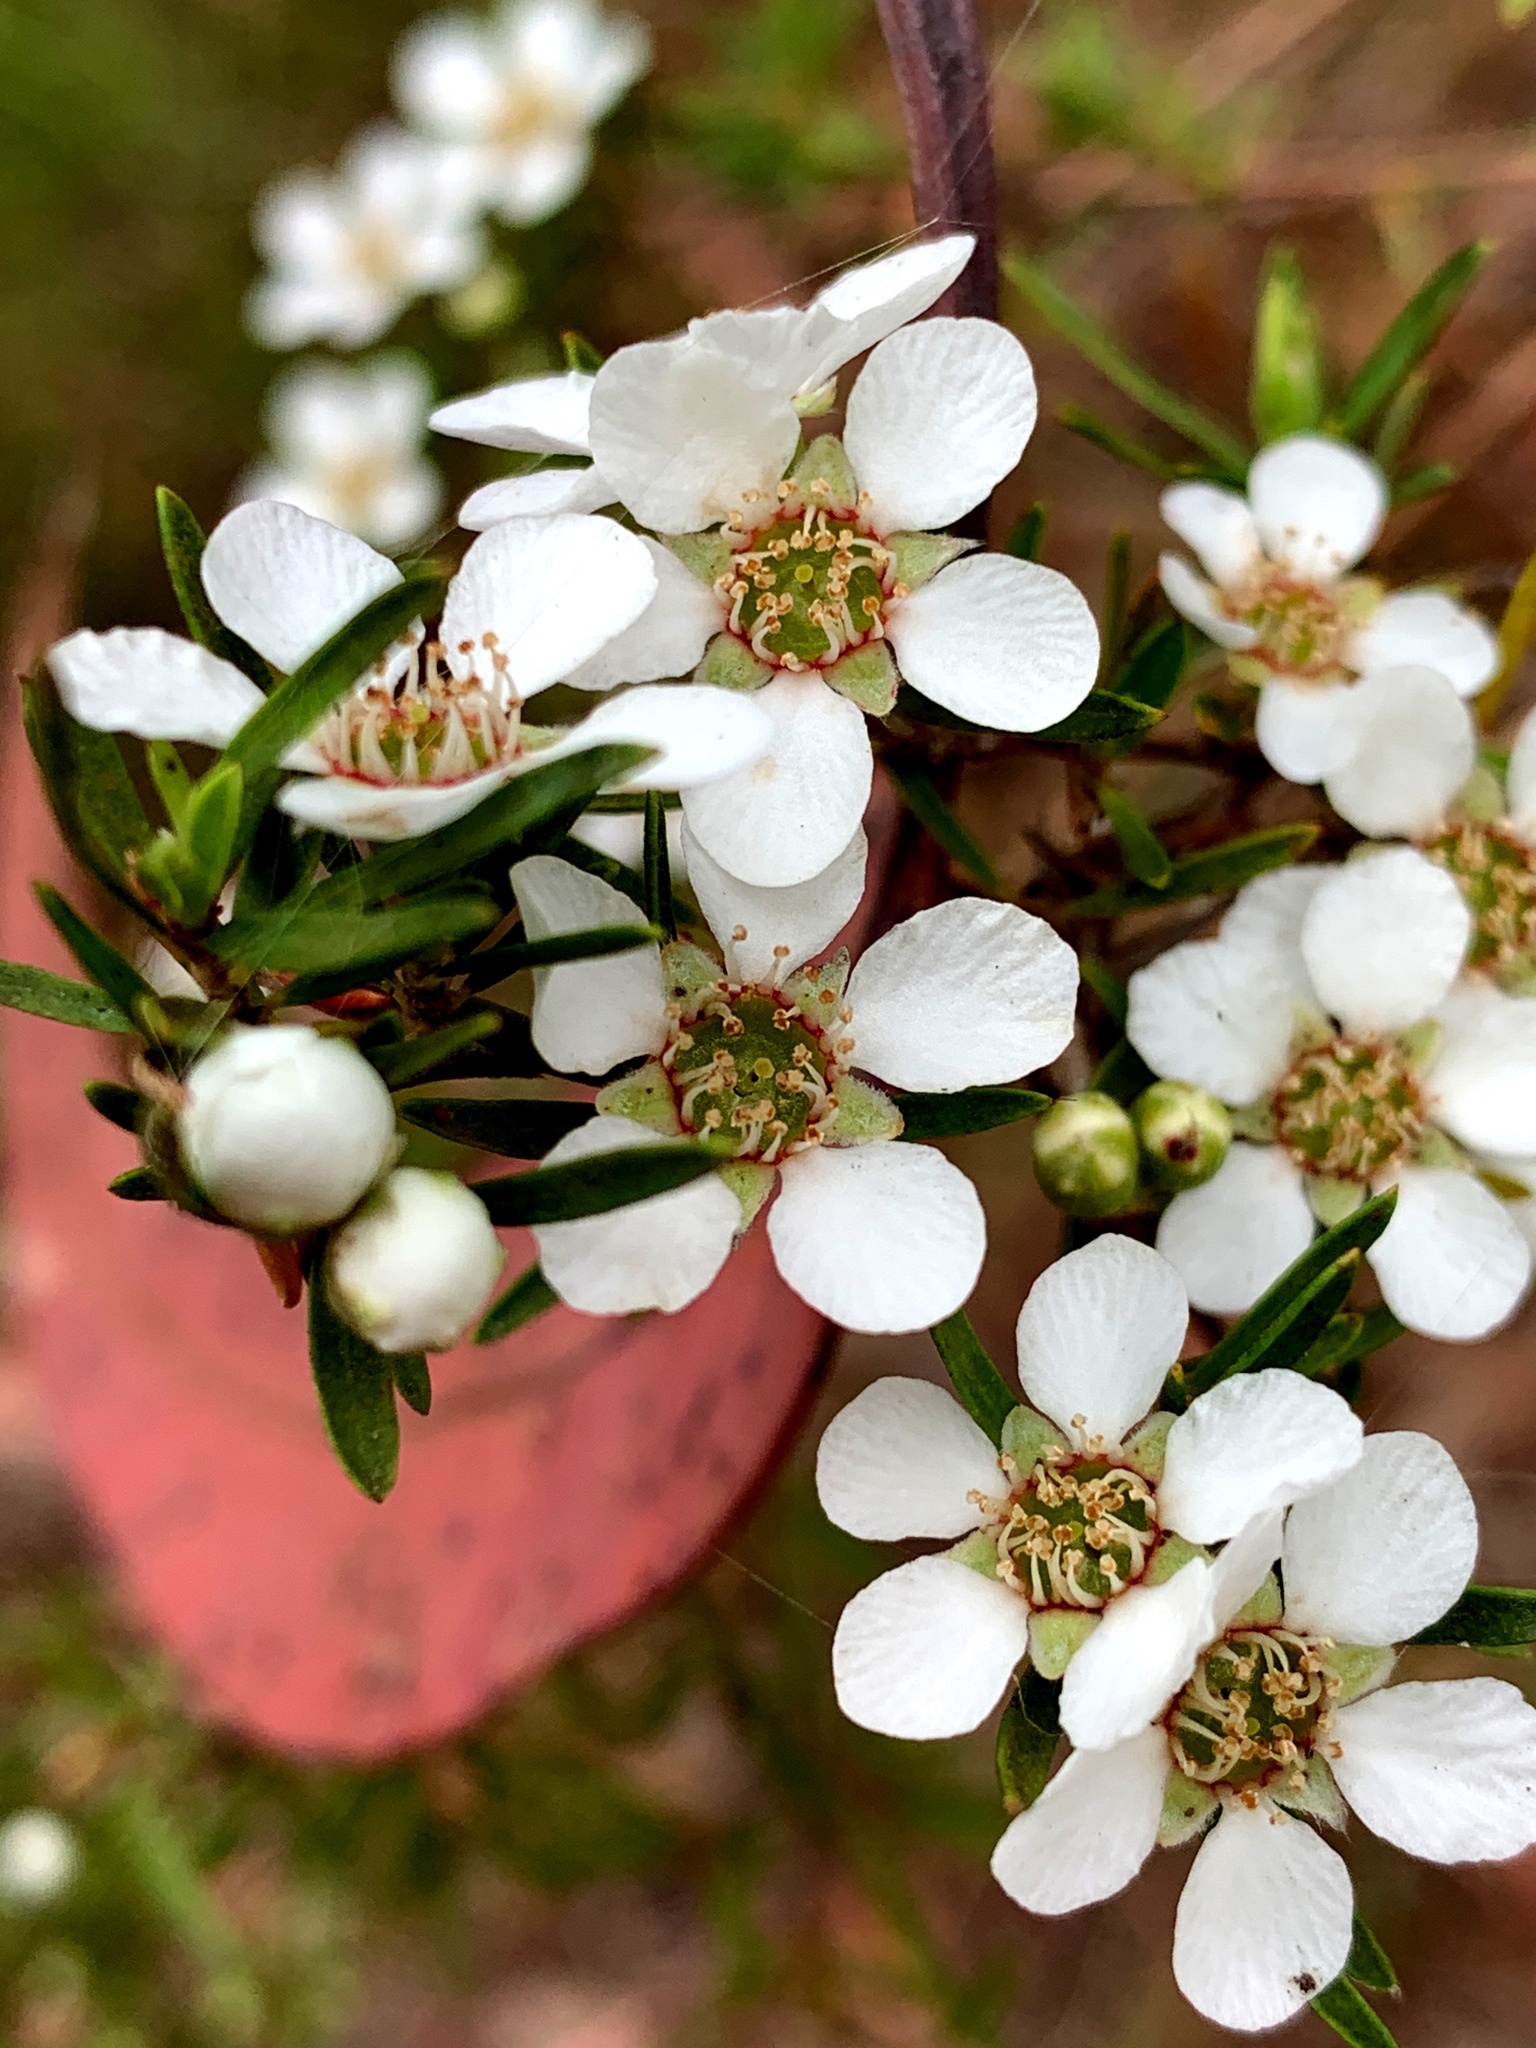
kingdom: Plantae
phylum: Tracheophyta
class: Magnoliopsida
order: Myrtales
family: Myrtaceae
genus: Leptospermum
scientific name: Leptospermum trinervium
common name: Flaky-barked tea-tree
